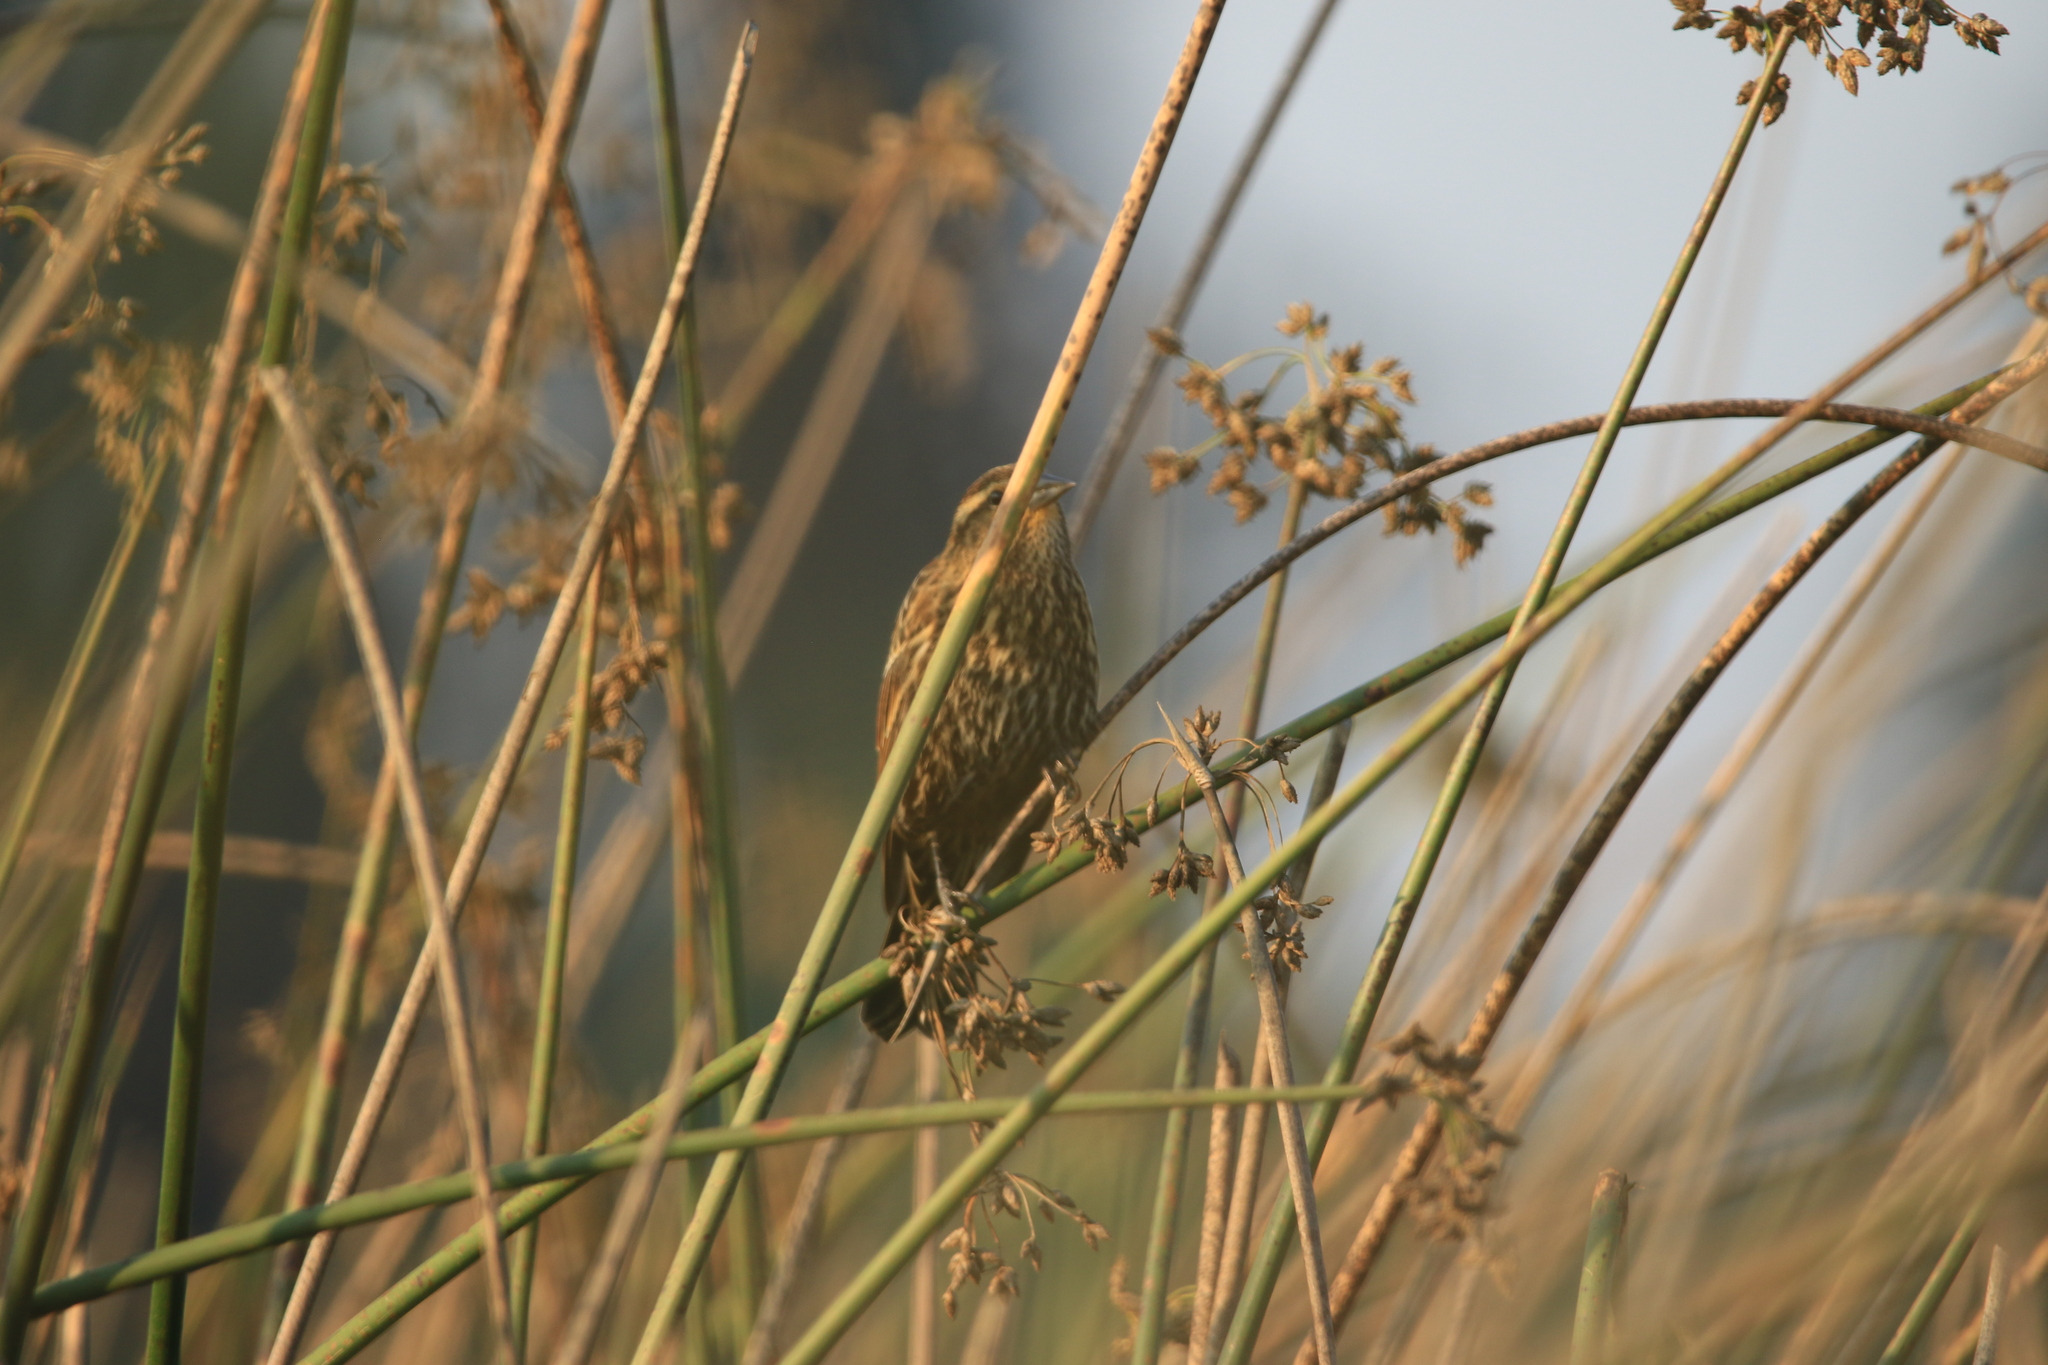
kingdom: Animalia
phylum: Chordata
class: Aves
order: Passeriformes
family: Icteridae
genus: Agelaius
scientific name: Agelaius phoeniceus
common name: Red-winged blackbird
